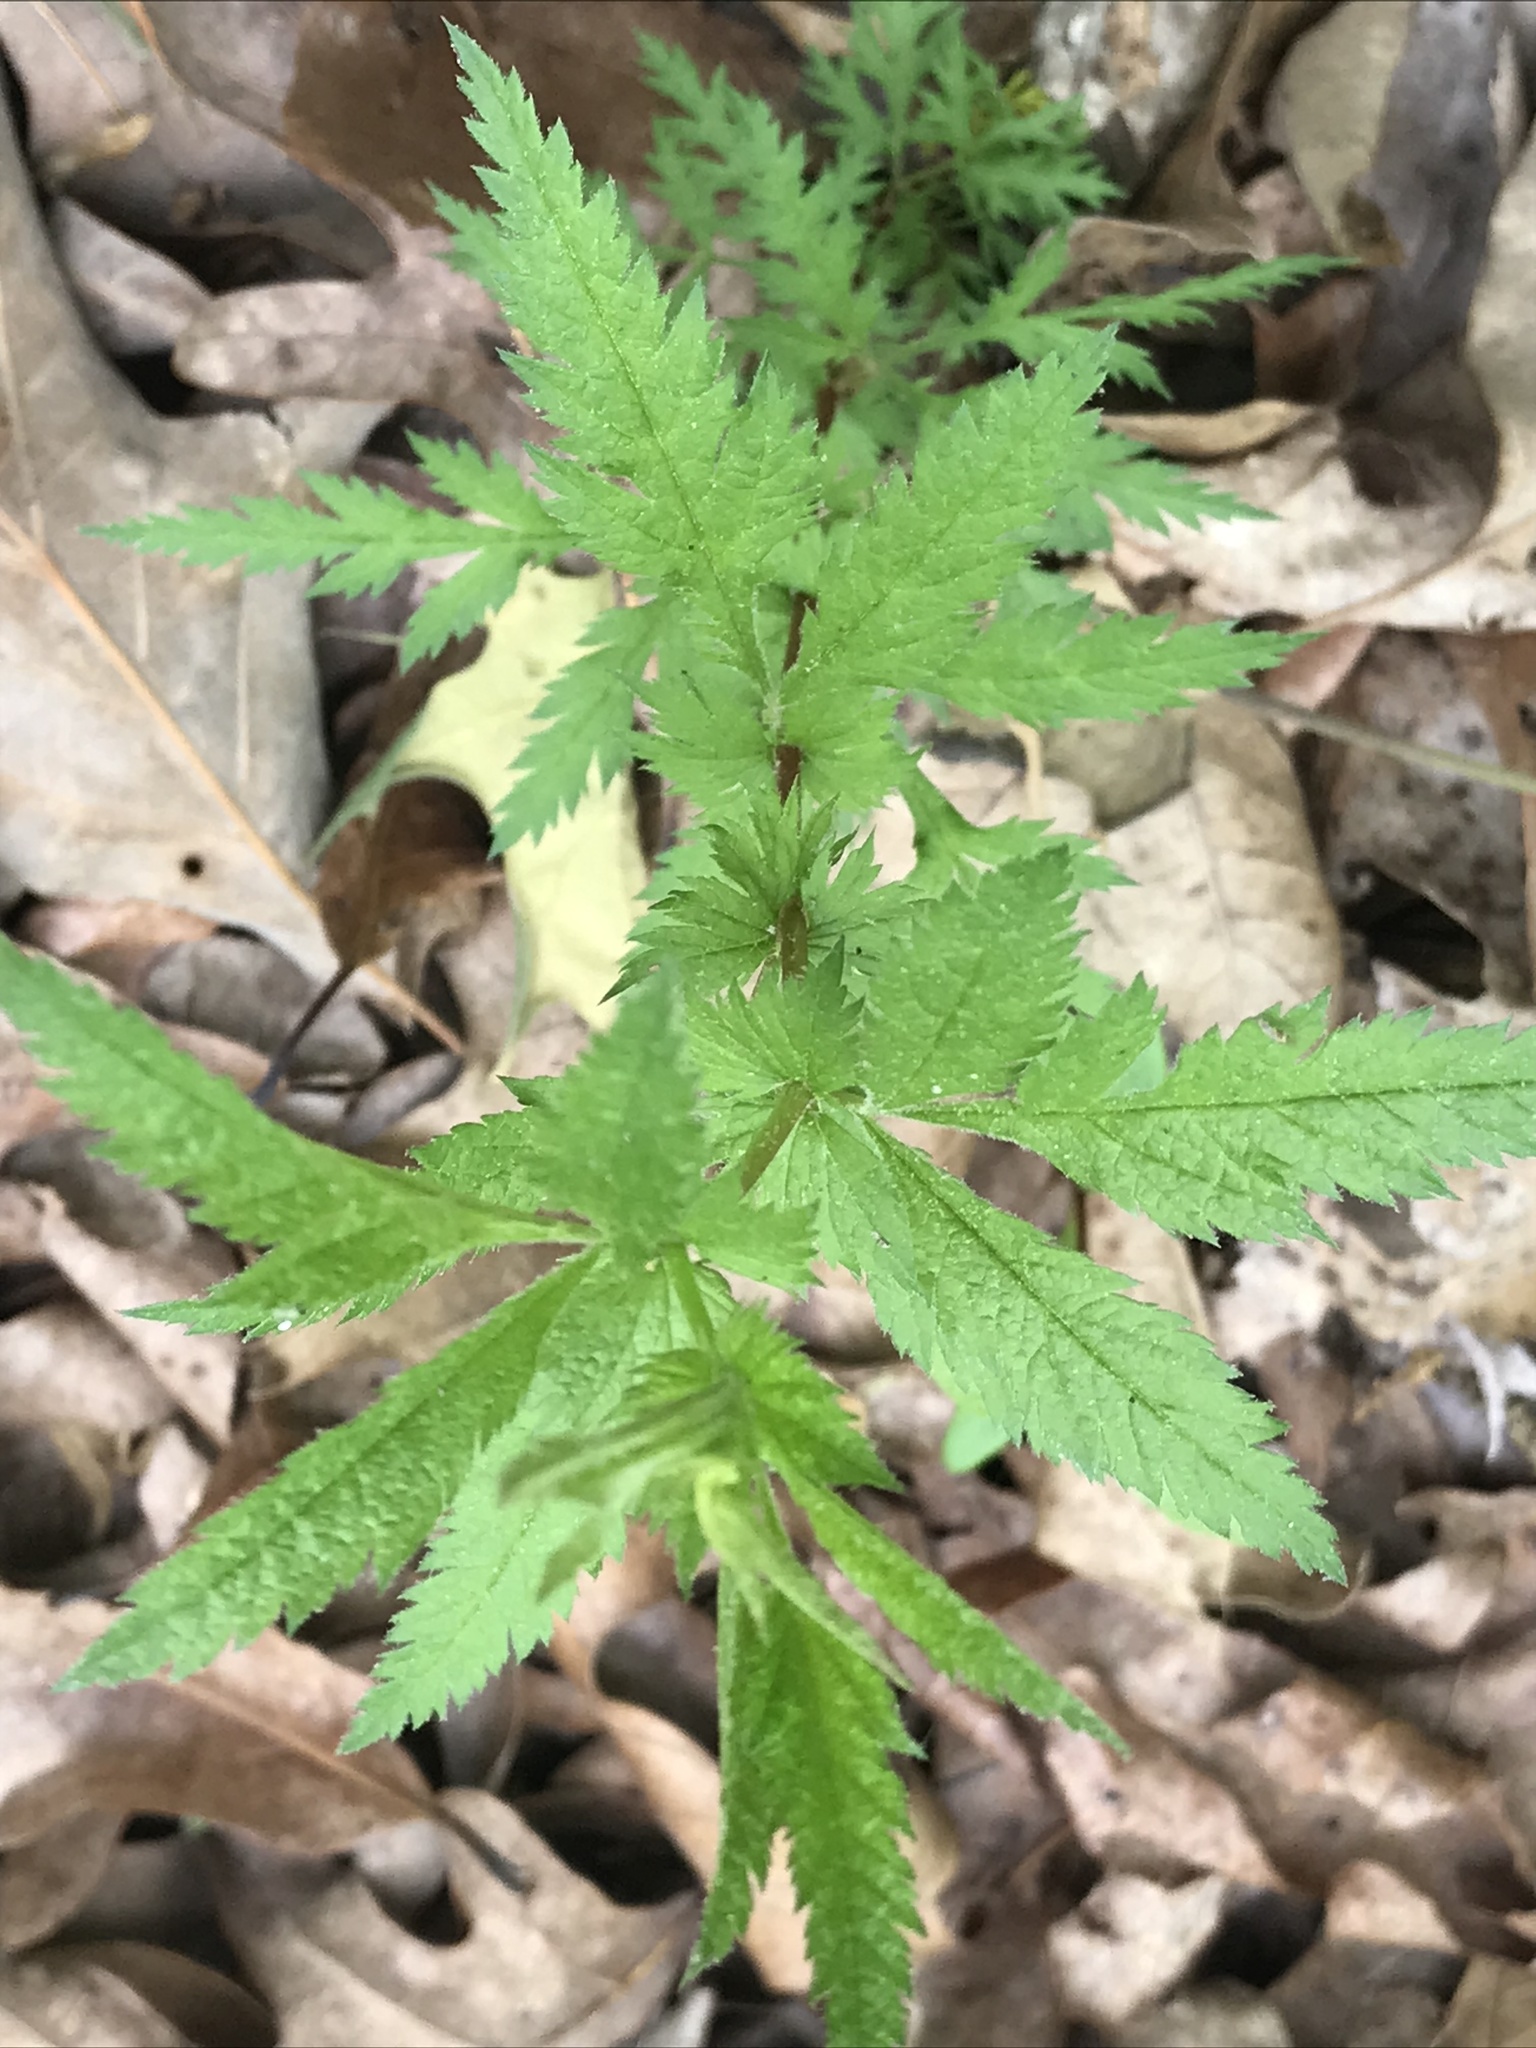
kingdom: Plantae
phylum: Tracheophyta
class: Magnoliopsida
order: Rosales
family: Rosaceae
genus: Gillenia
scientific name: Gillenia stipulata
